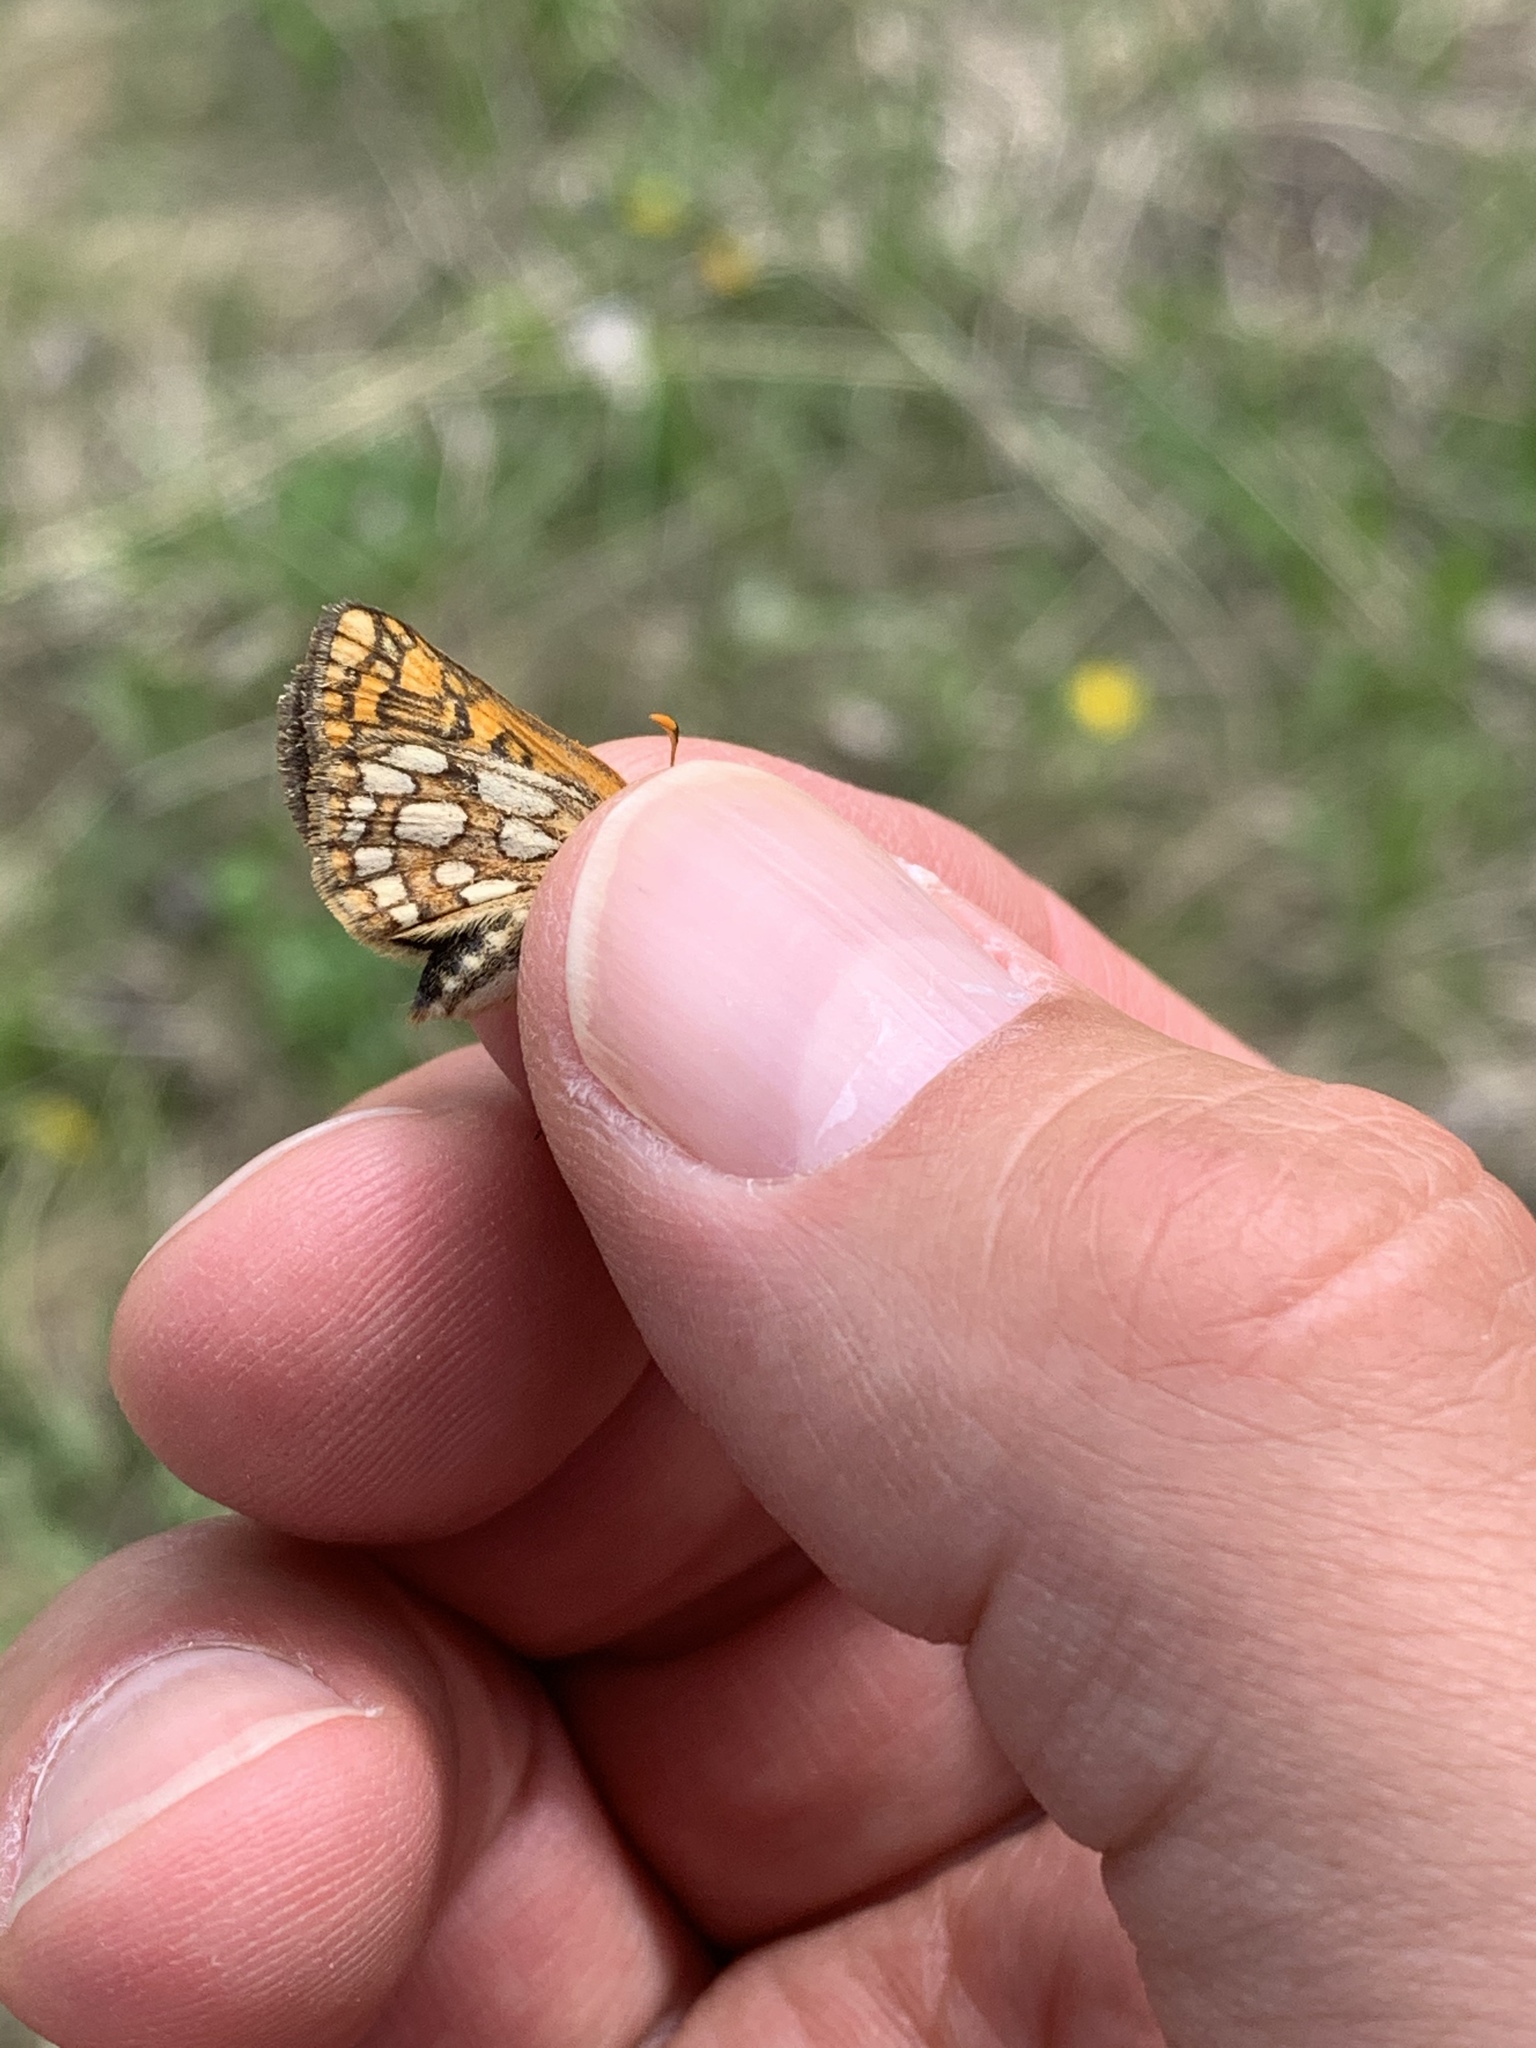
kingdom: Animalia
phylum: Arthropoda
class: Insecta
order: Lepidoptera
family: Hesperiidae
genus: Carterocephalus
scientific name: Carterocephalus skada
